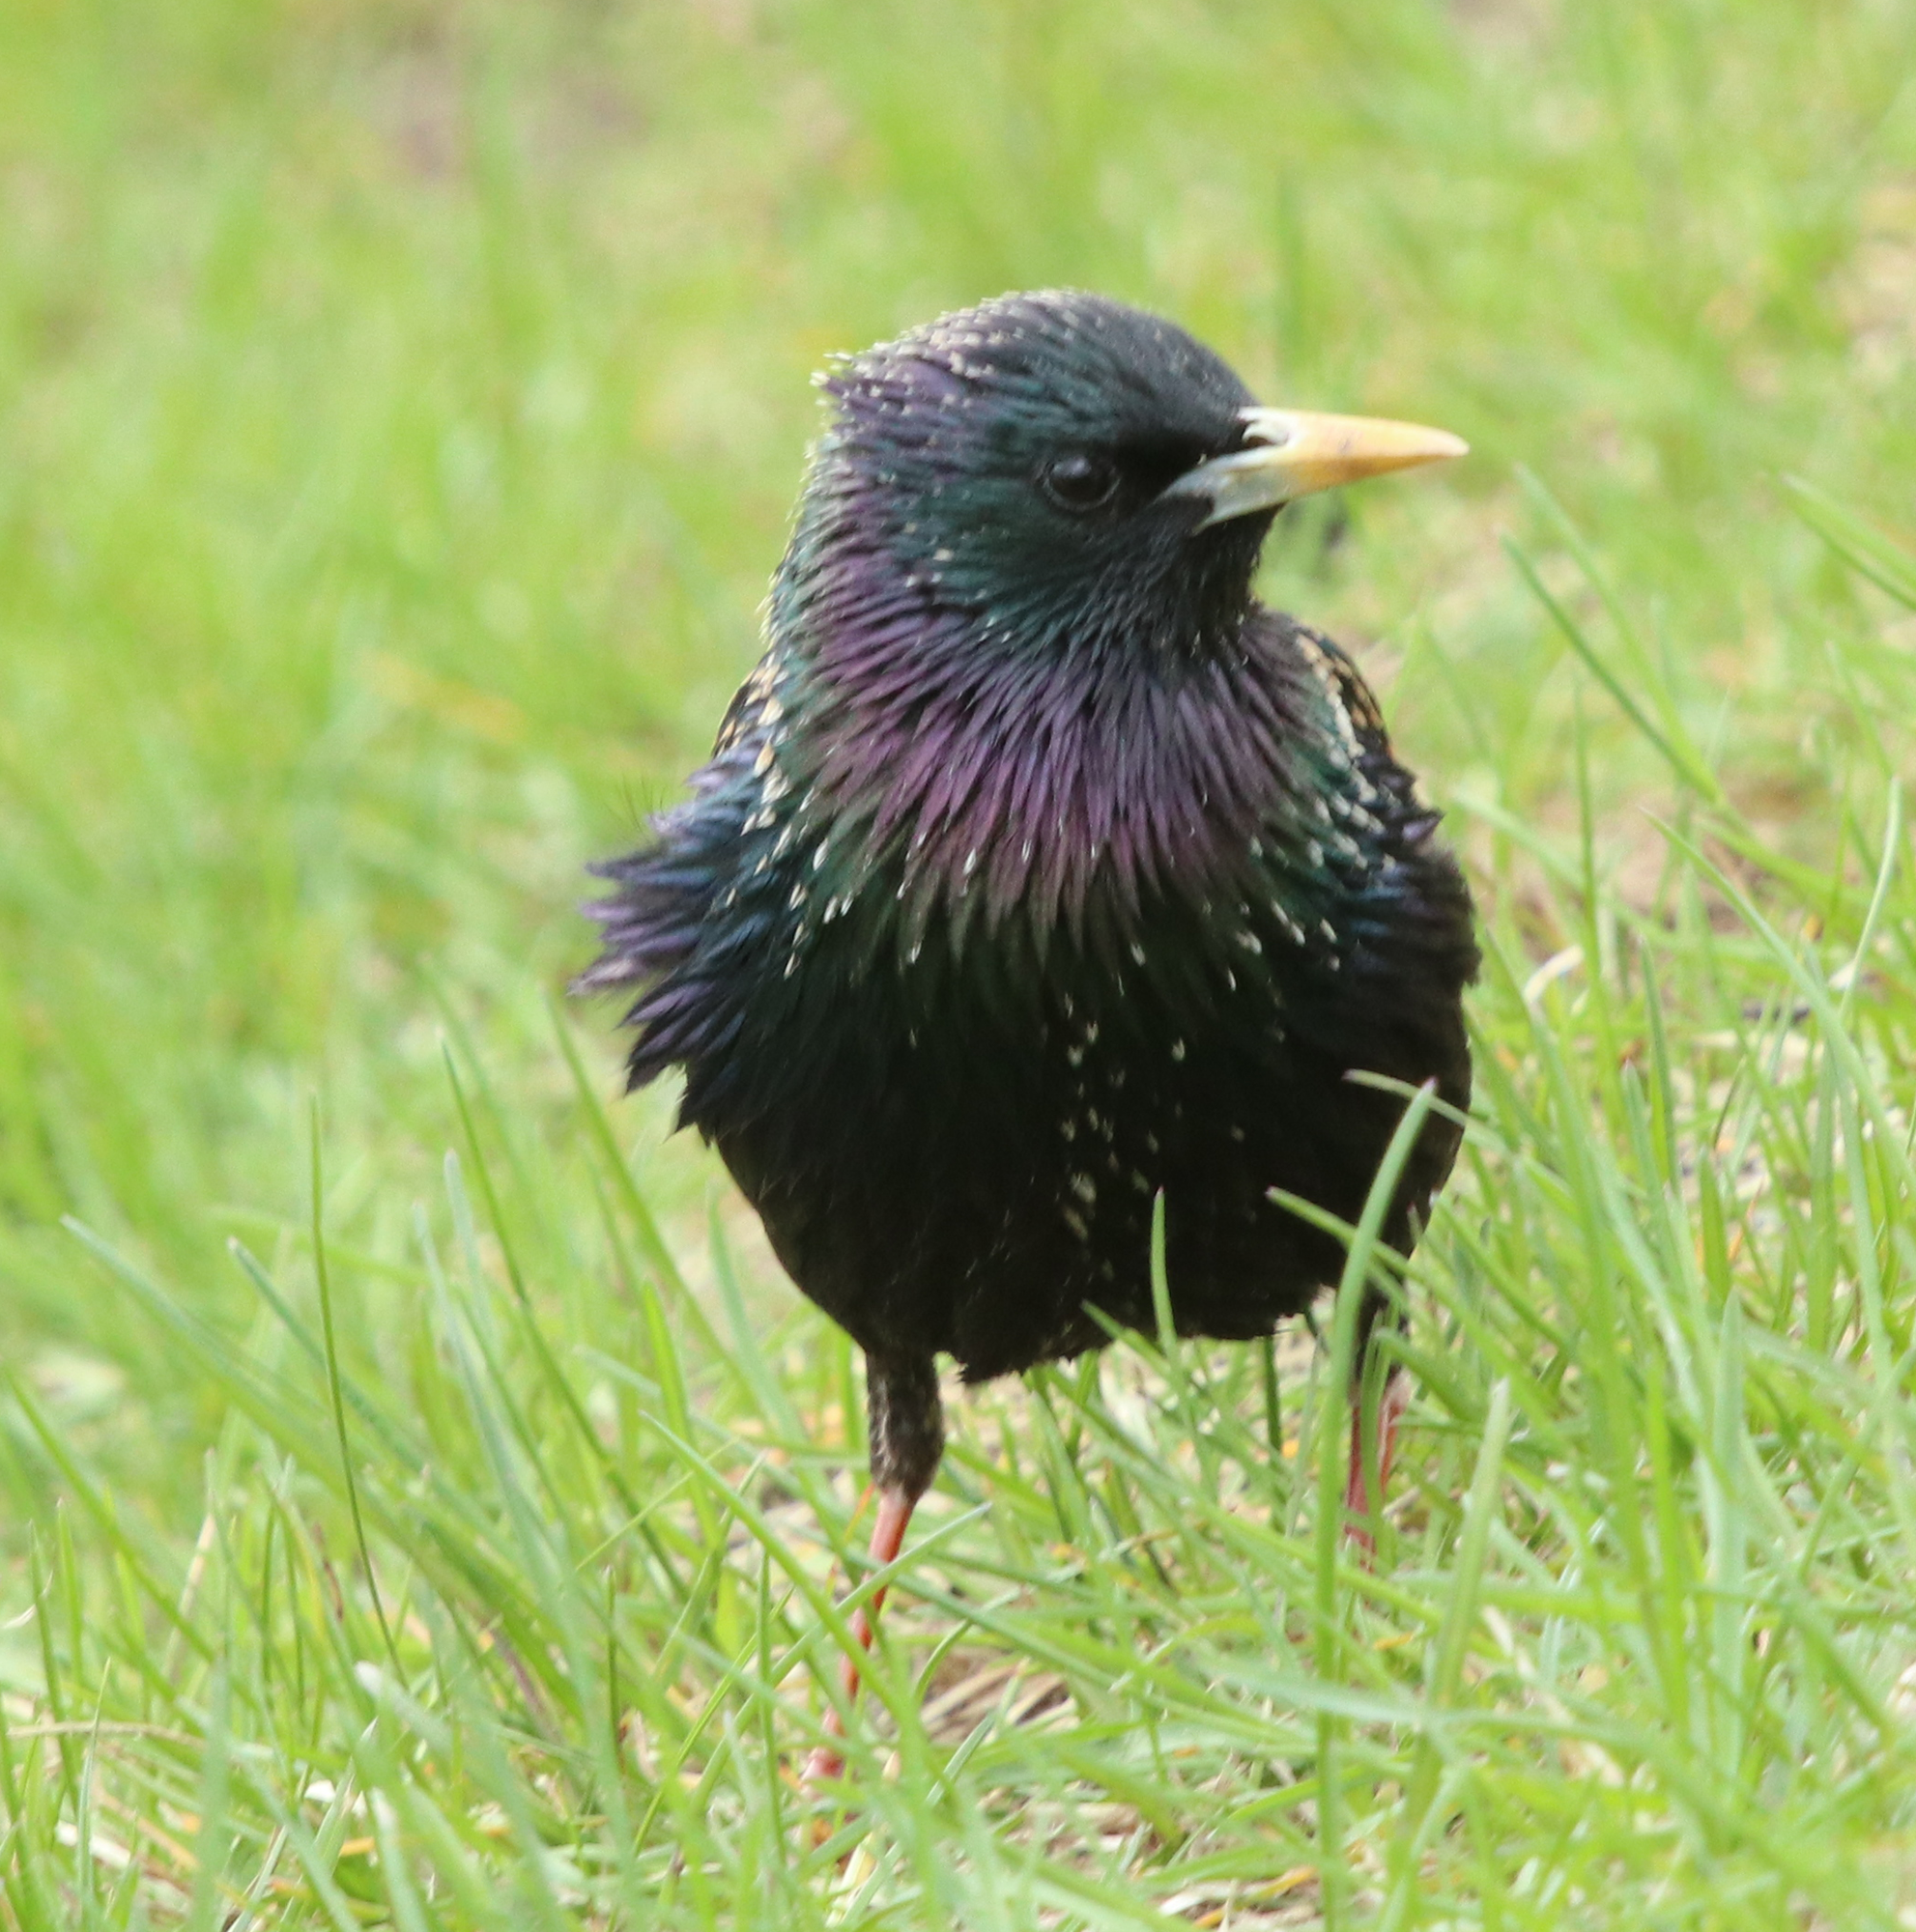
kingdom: Animalia
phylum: Chordata
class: Aves
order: Passeriformes
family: Sturnidae
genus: Sturnus
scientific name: Sturnus vulgaris
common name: Common starling
